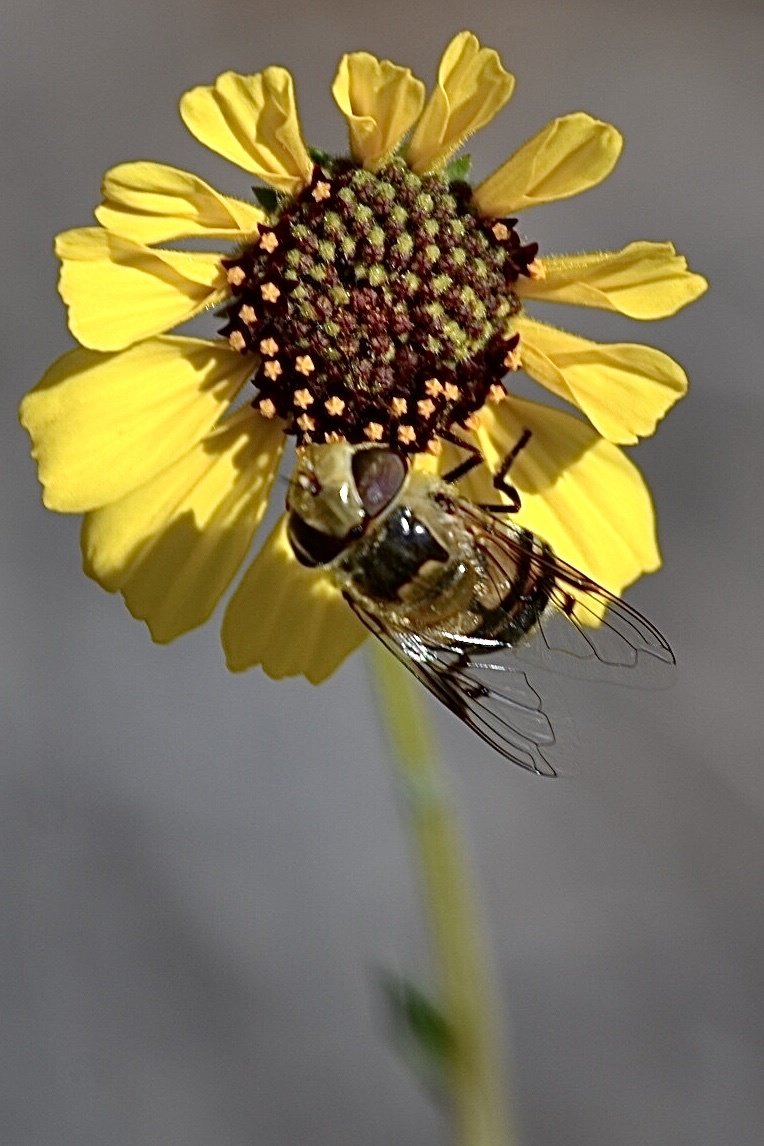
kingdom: Animalia
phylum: Arthropoda
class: Insecta
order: Diptera
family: Syrphidae
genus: Copestylum
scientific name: Copestylum apiciferum
